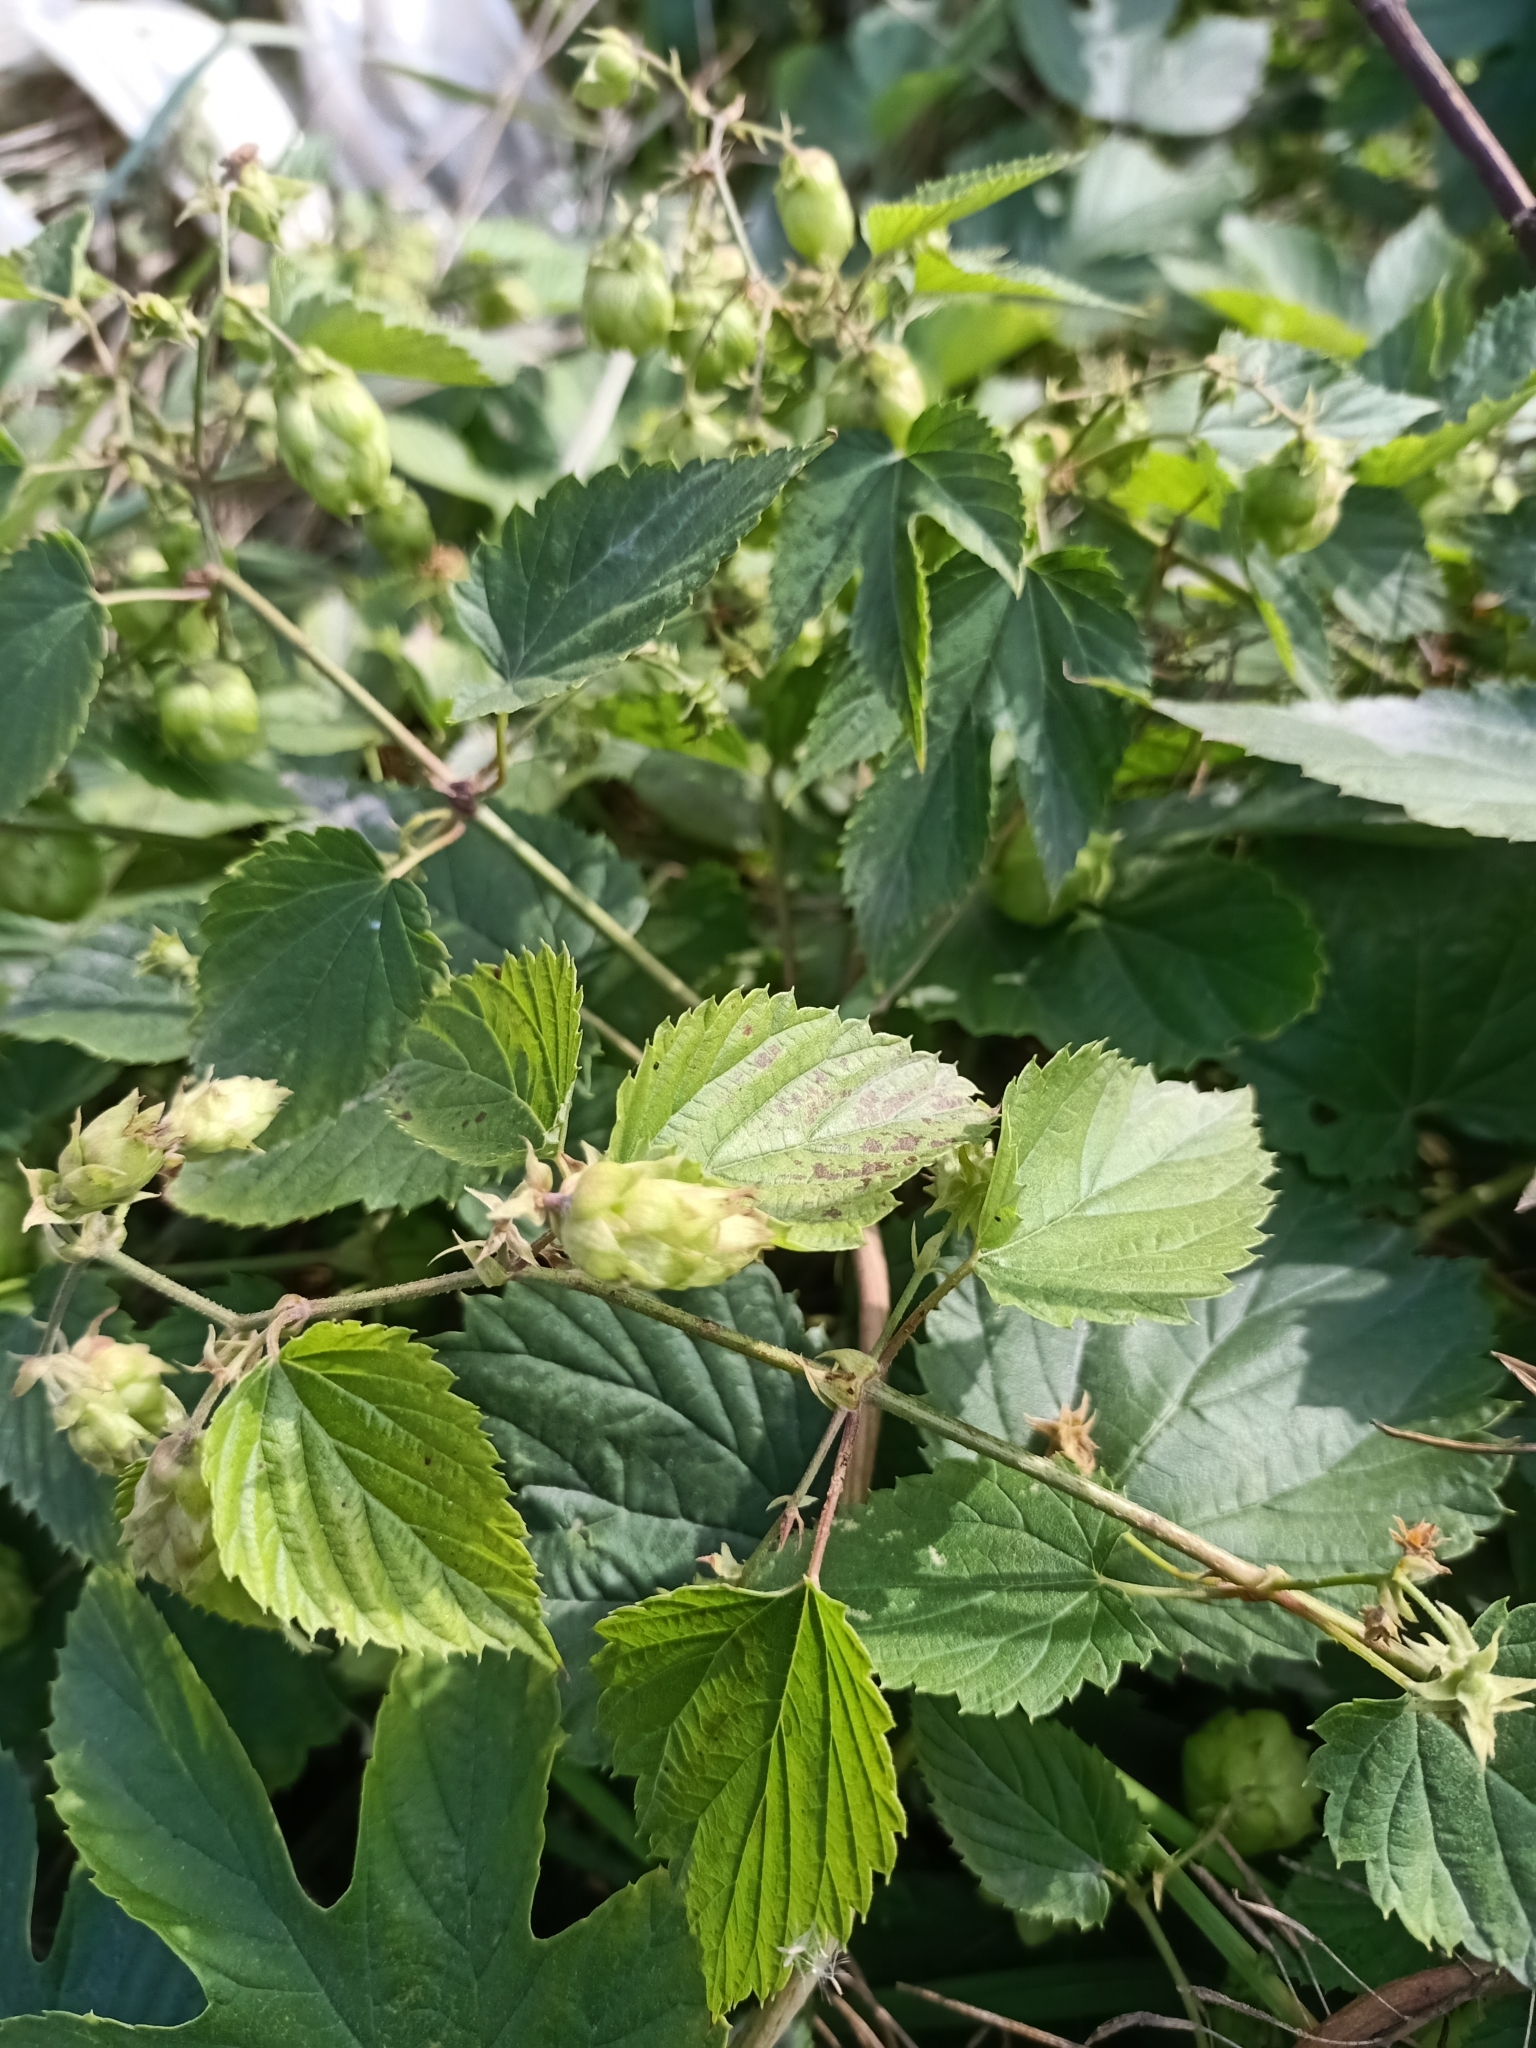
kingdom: Plantae
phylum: Tracheophyta
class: Magnoliopsida
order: Rosales
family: Cannabaceae
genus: Humulus
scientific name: Humulus lupulus
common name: Hop
